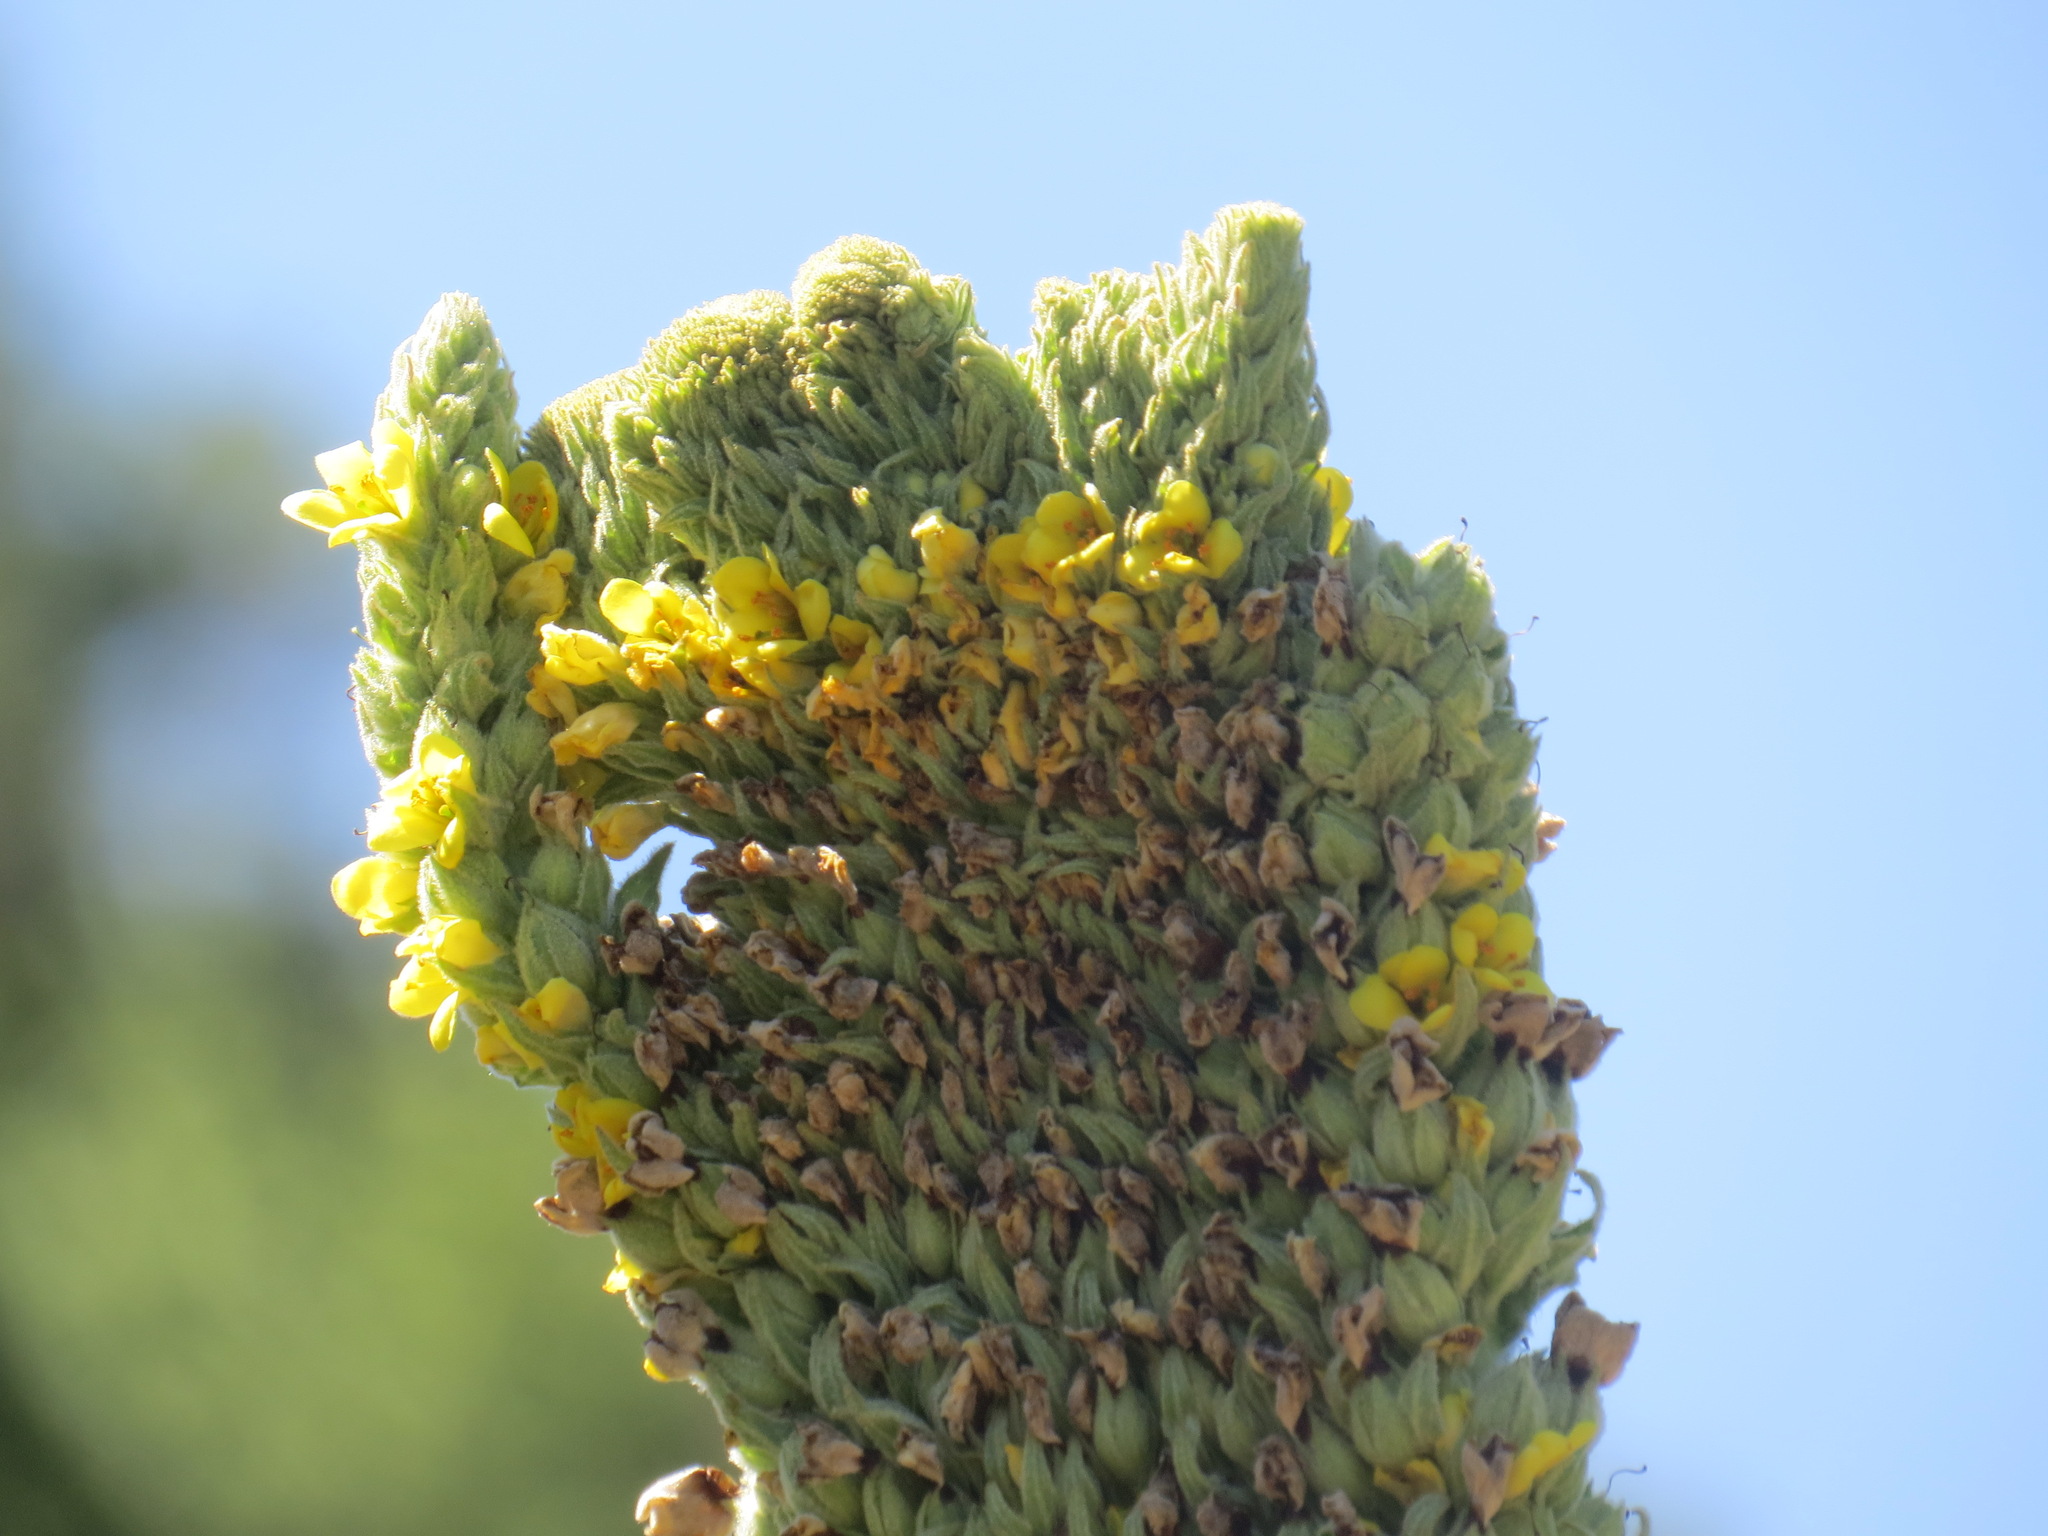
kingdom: Plantae
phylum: Tracheophyta
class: Magnoliopsida
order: Lamiales
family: Scrophulariaceae
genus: Verbascum
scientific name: Verbascum thapsus
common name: Common mullein
